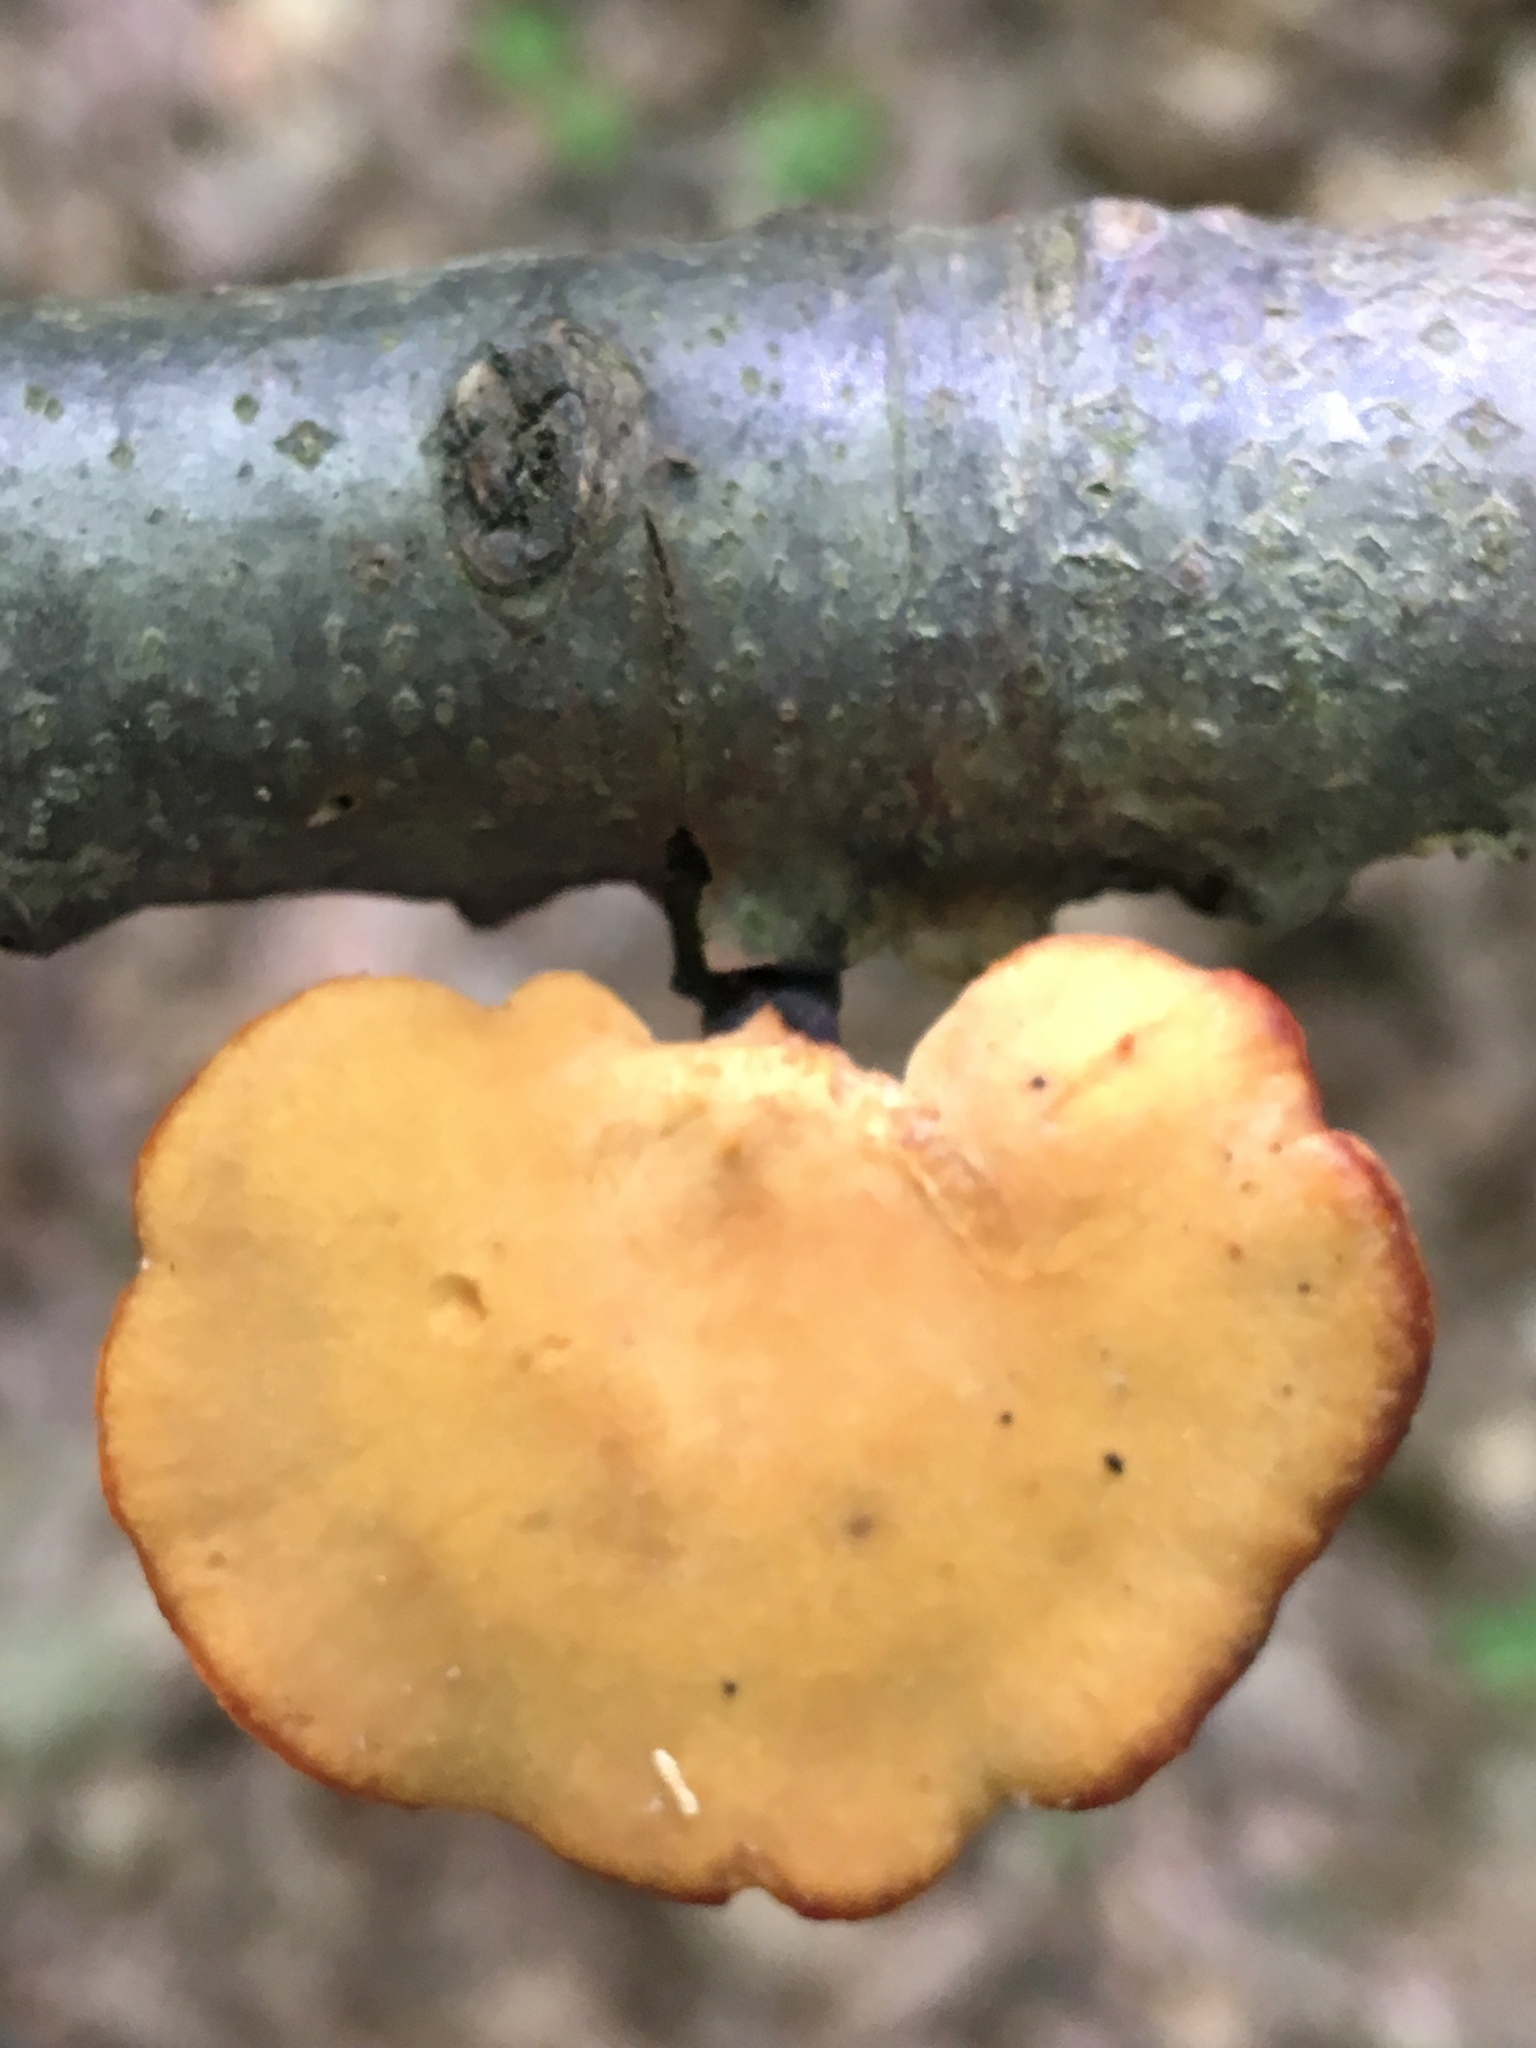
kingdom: Fungi
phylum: Basidiomycota
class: Agaricomycetes
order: Polyporales
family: Polyporaceae
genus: Cerioporus
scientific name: Cerioporus varius
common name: Elegant polypore
